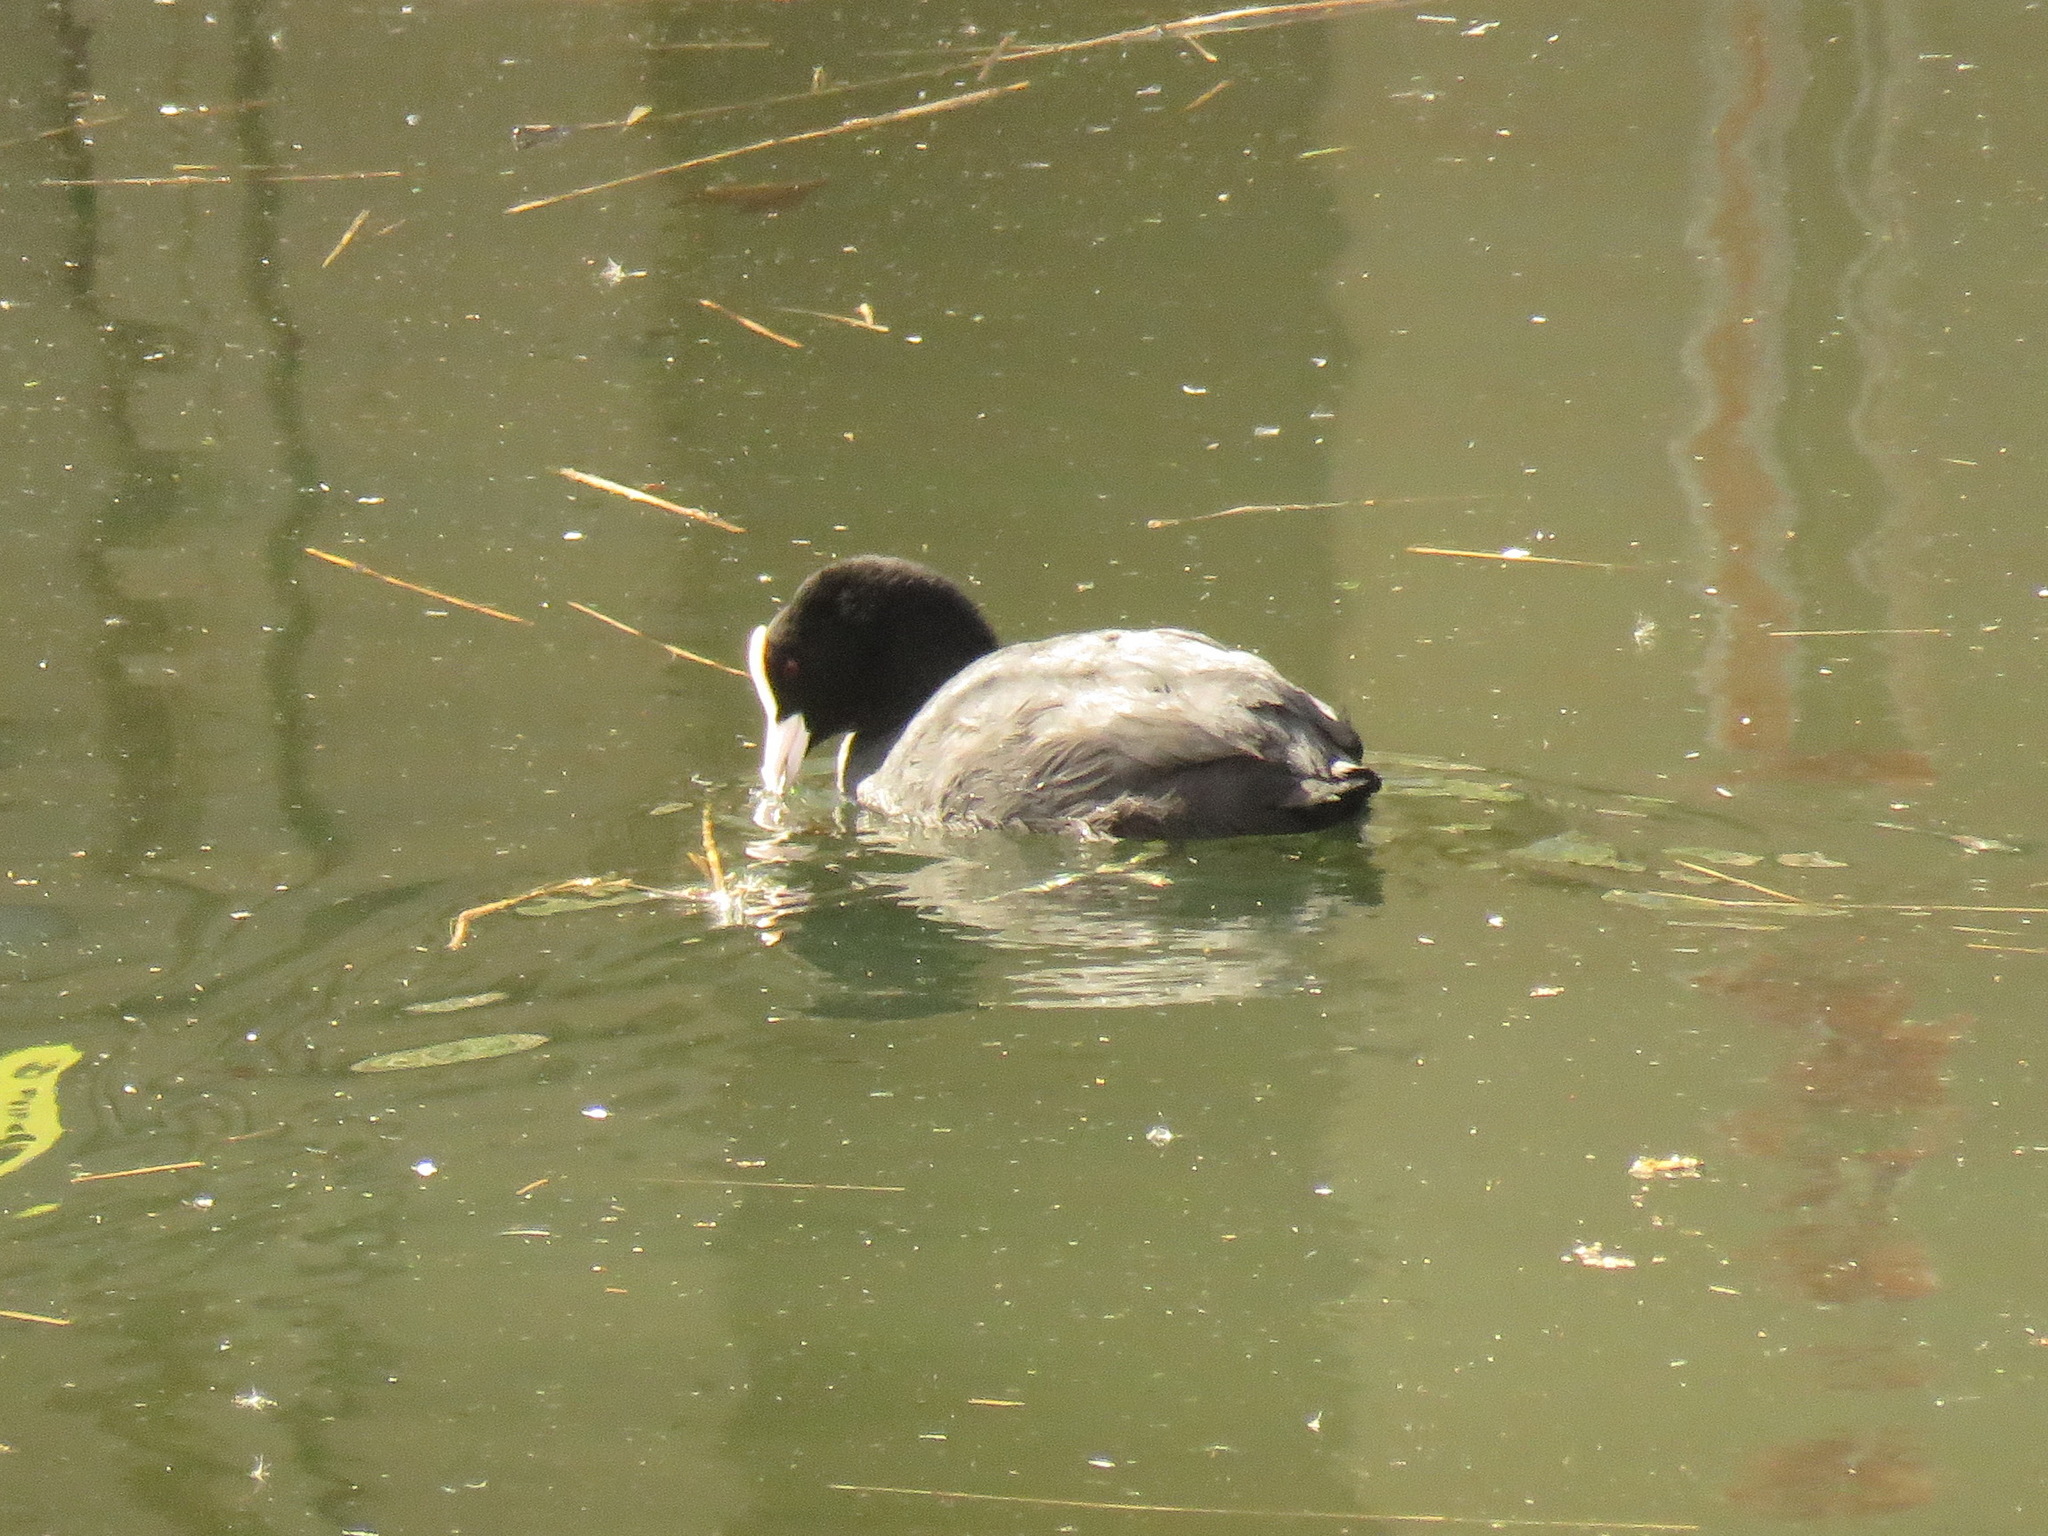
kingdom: Animalia
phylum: Chordata
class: Aves
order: Gruiformes
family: Rallidae
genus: Fulica
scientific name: Fulica atra
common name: Eurasian coot
